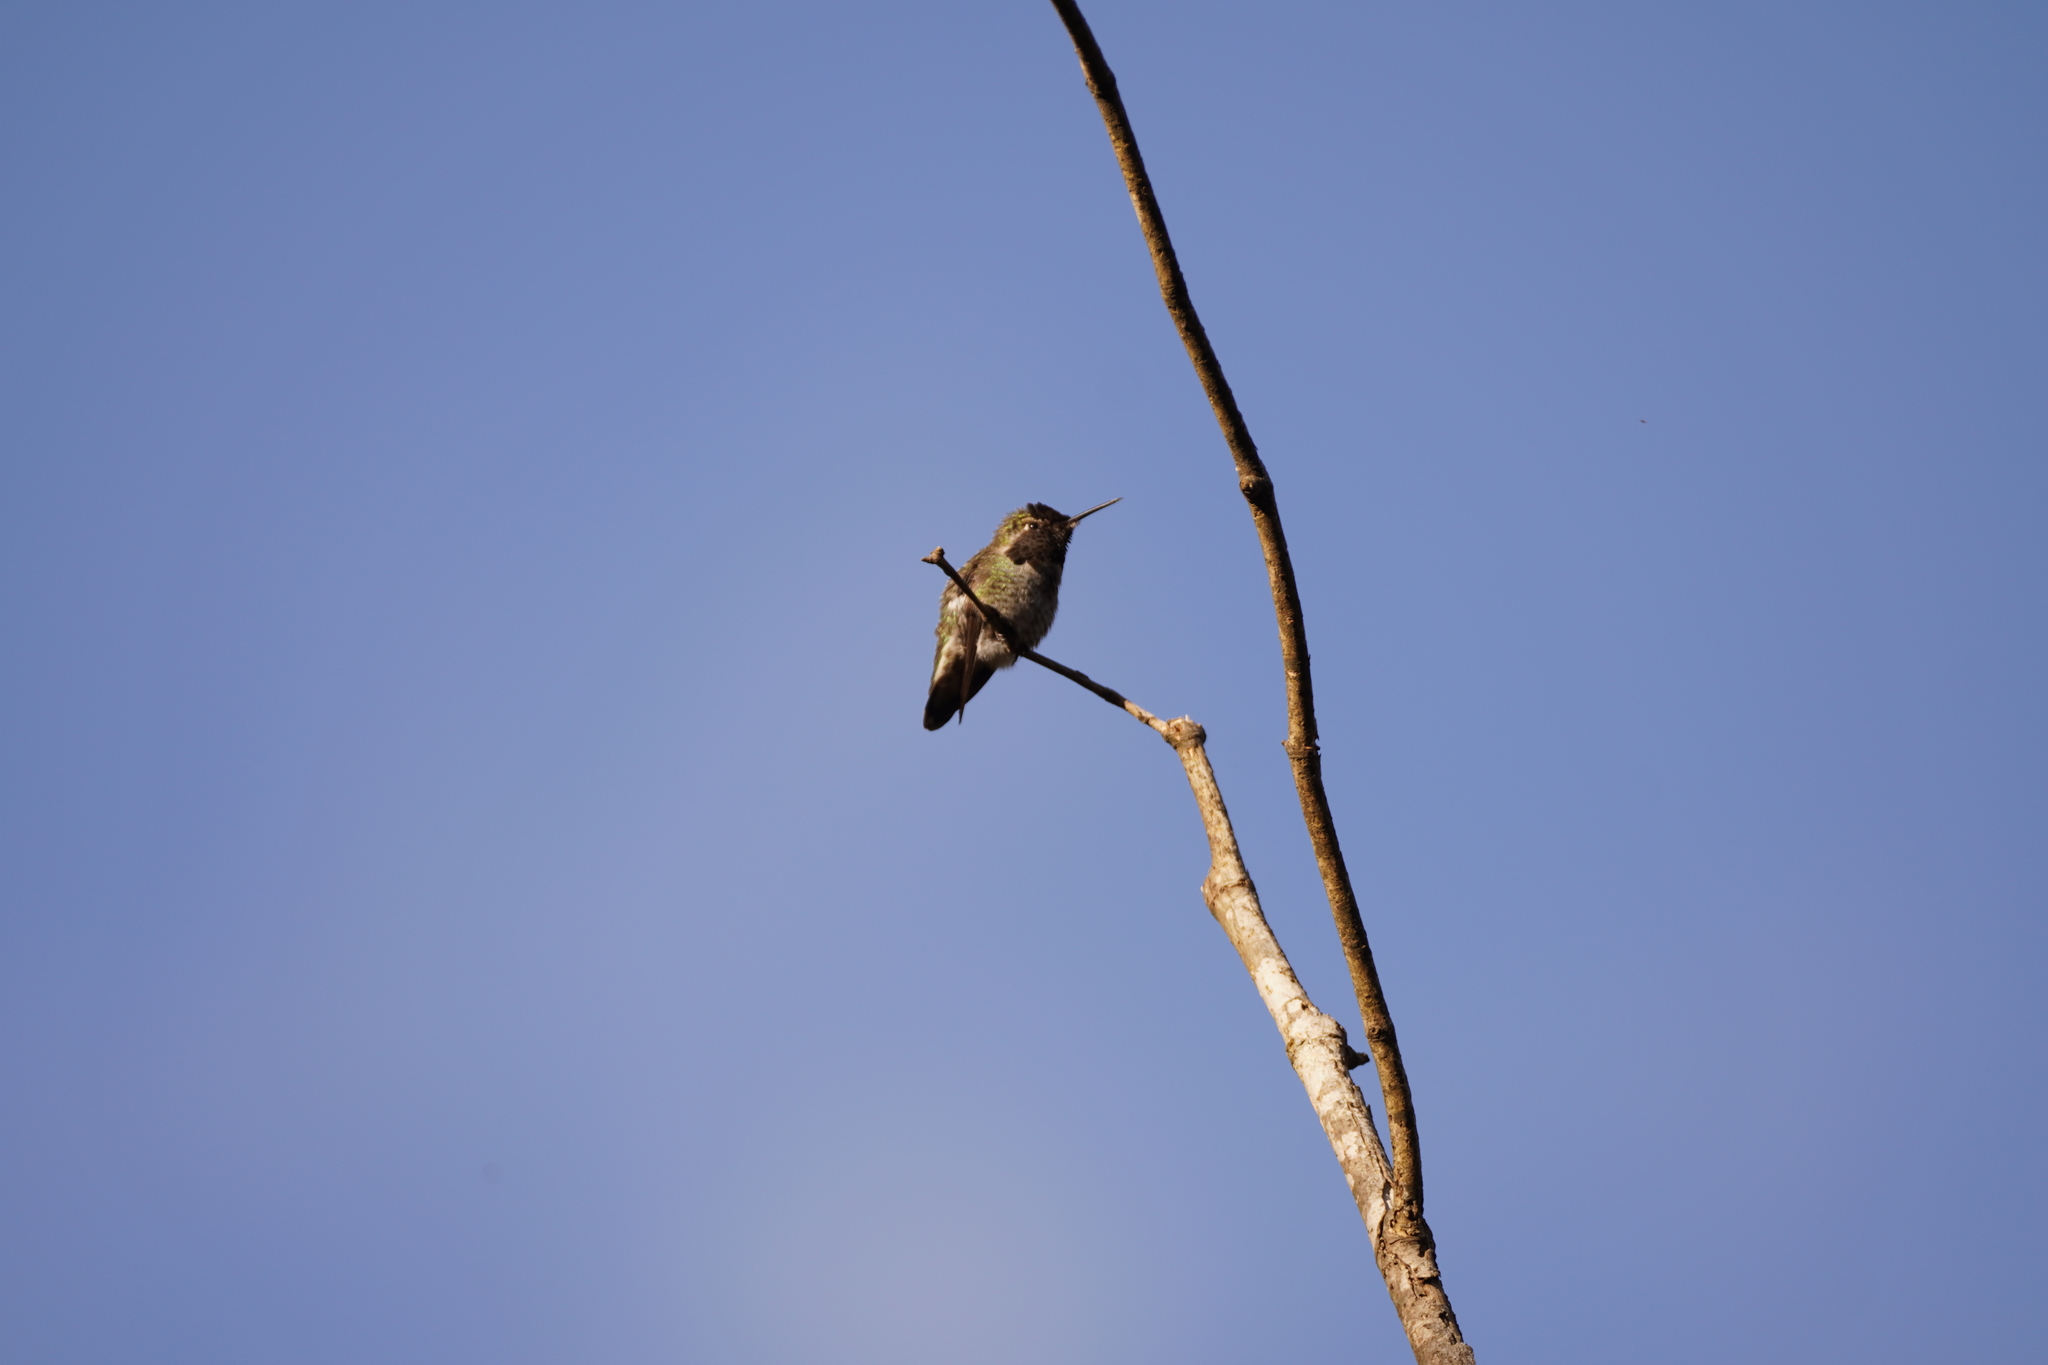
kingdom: Animalia
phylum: Chordata
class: Aves
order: Apodiformes
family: Trochilidae
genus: Calypte
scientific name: Calypte anna
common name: Anna's hummingbird
